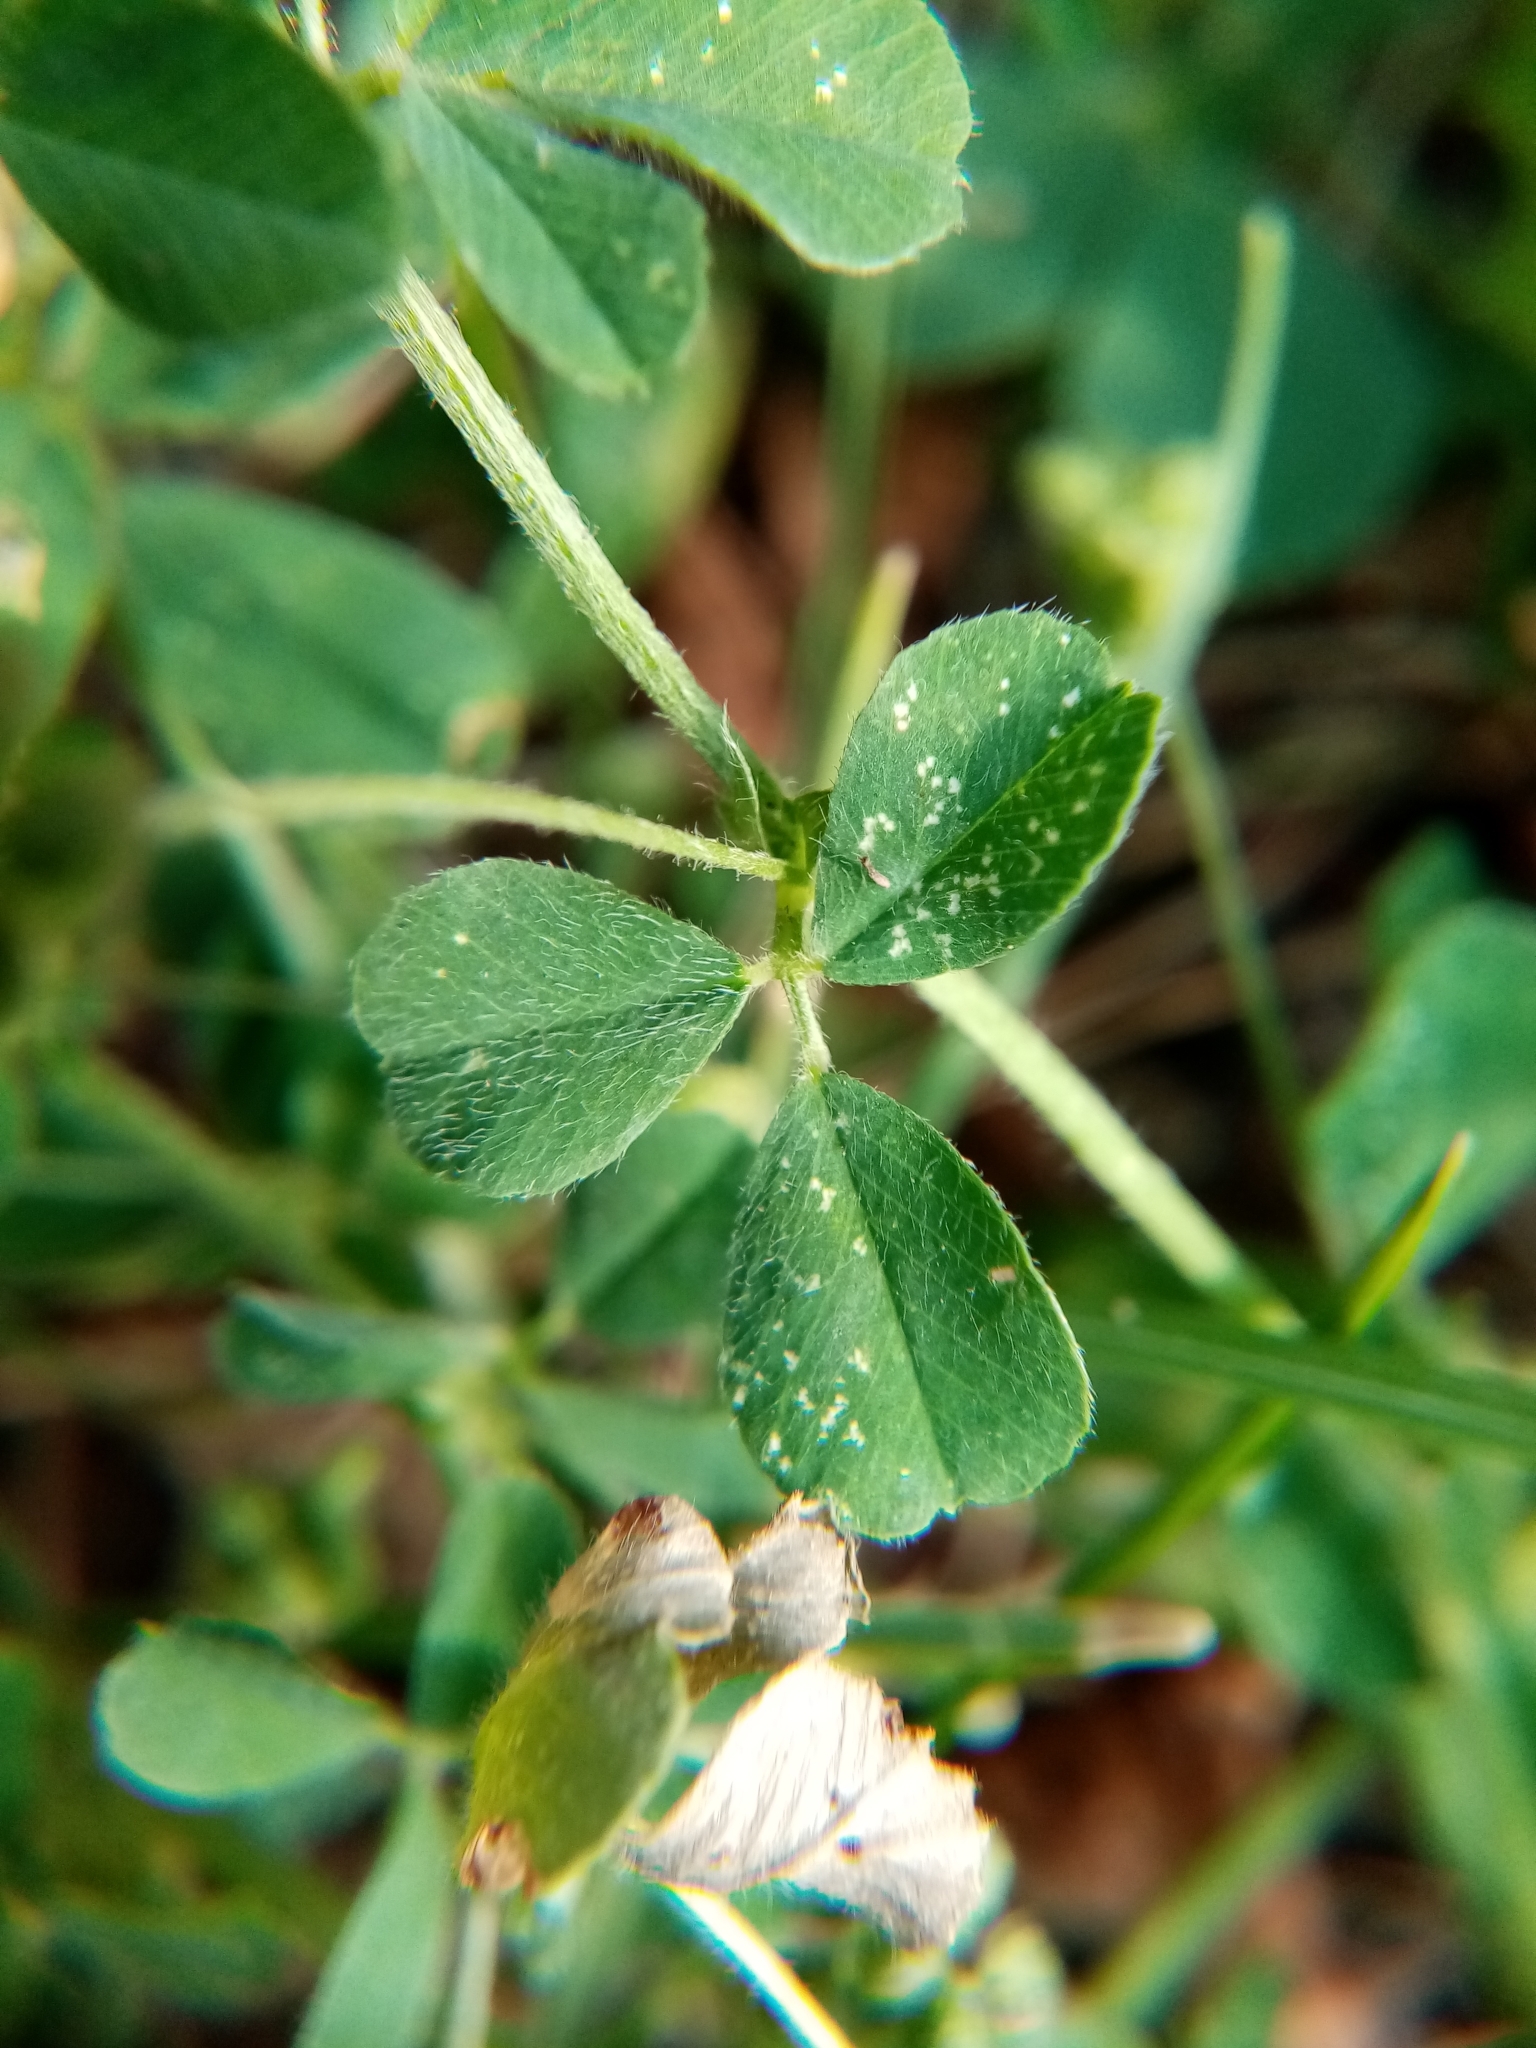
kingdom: Plantae
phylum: Tracheophyta
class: Magnoliopsida
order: Fabales
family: Fabaceae
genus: Medicago
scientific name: Medicago lupulina
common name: Black medick
